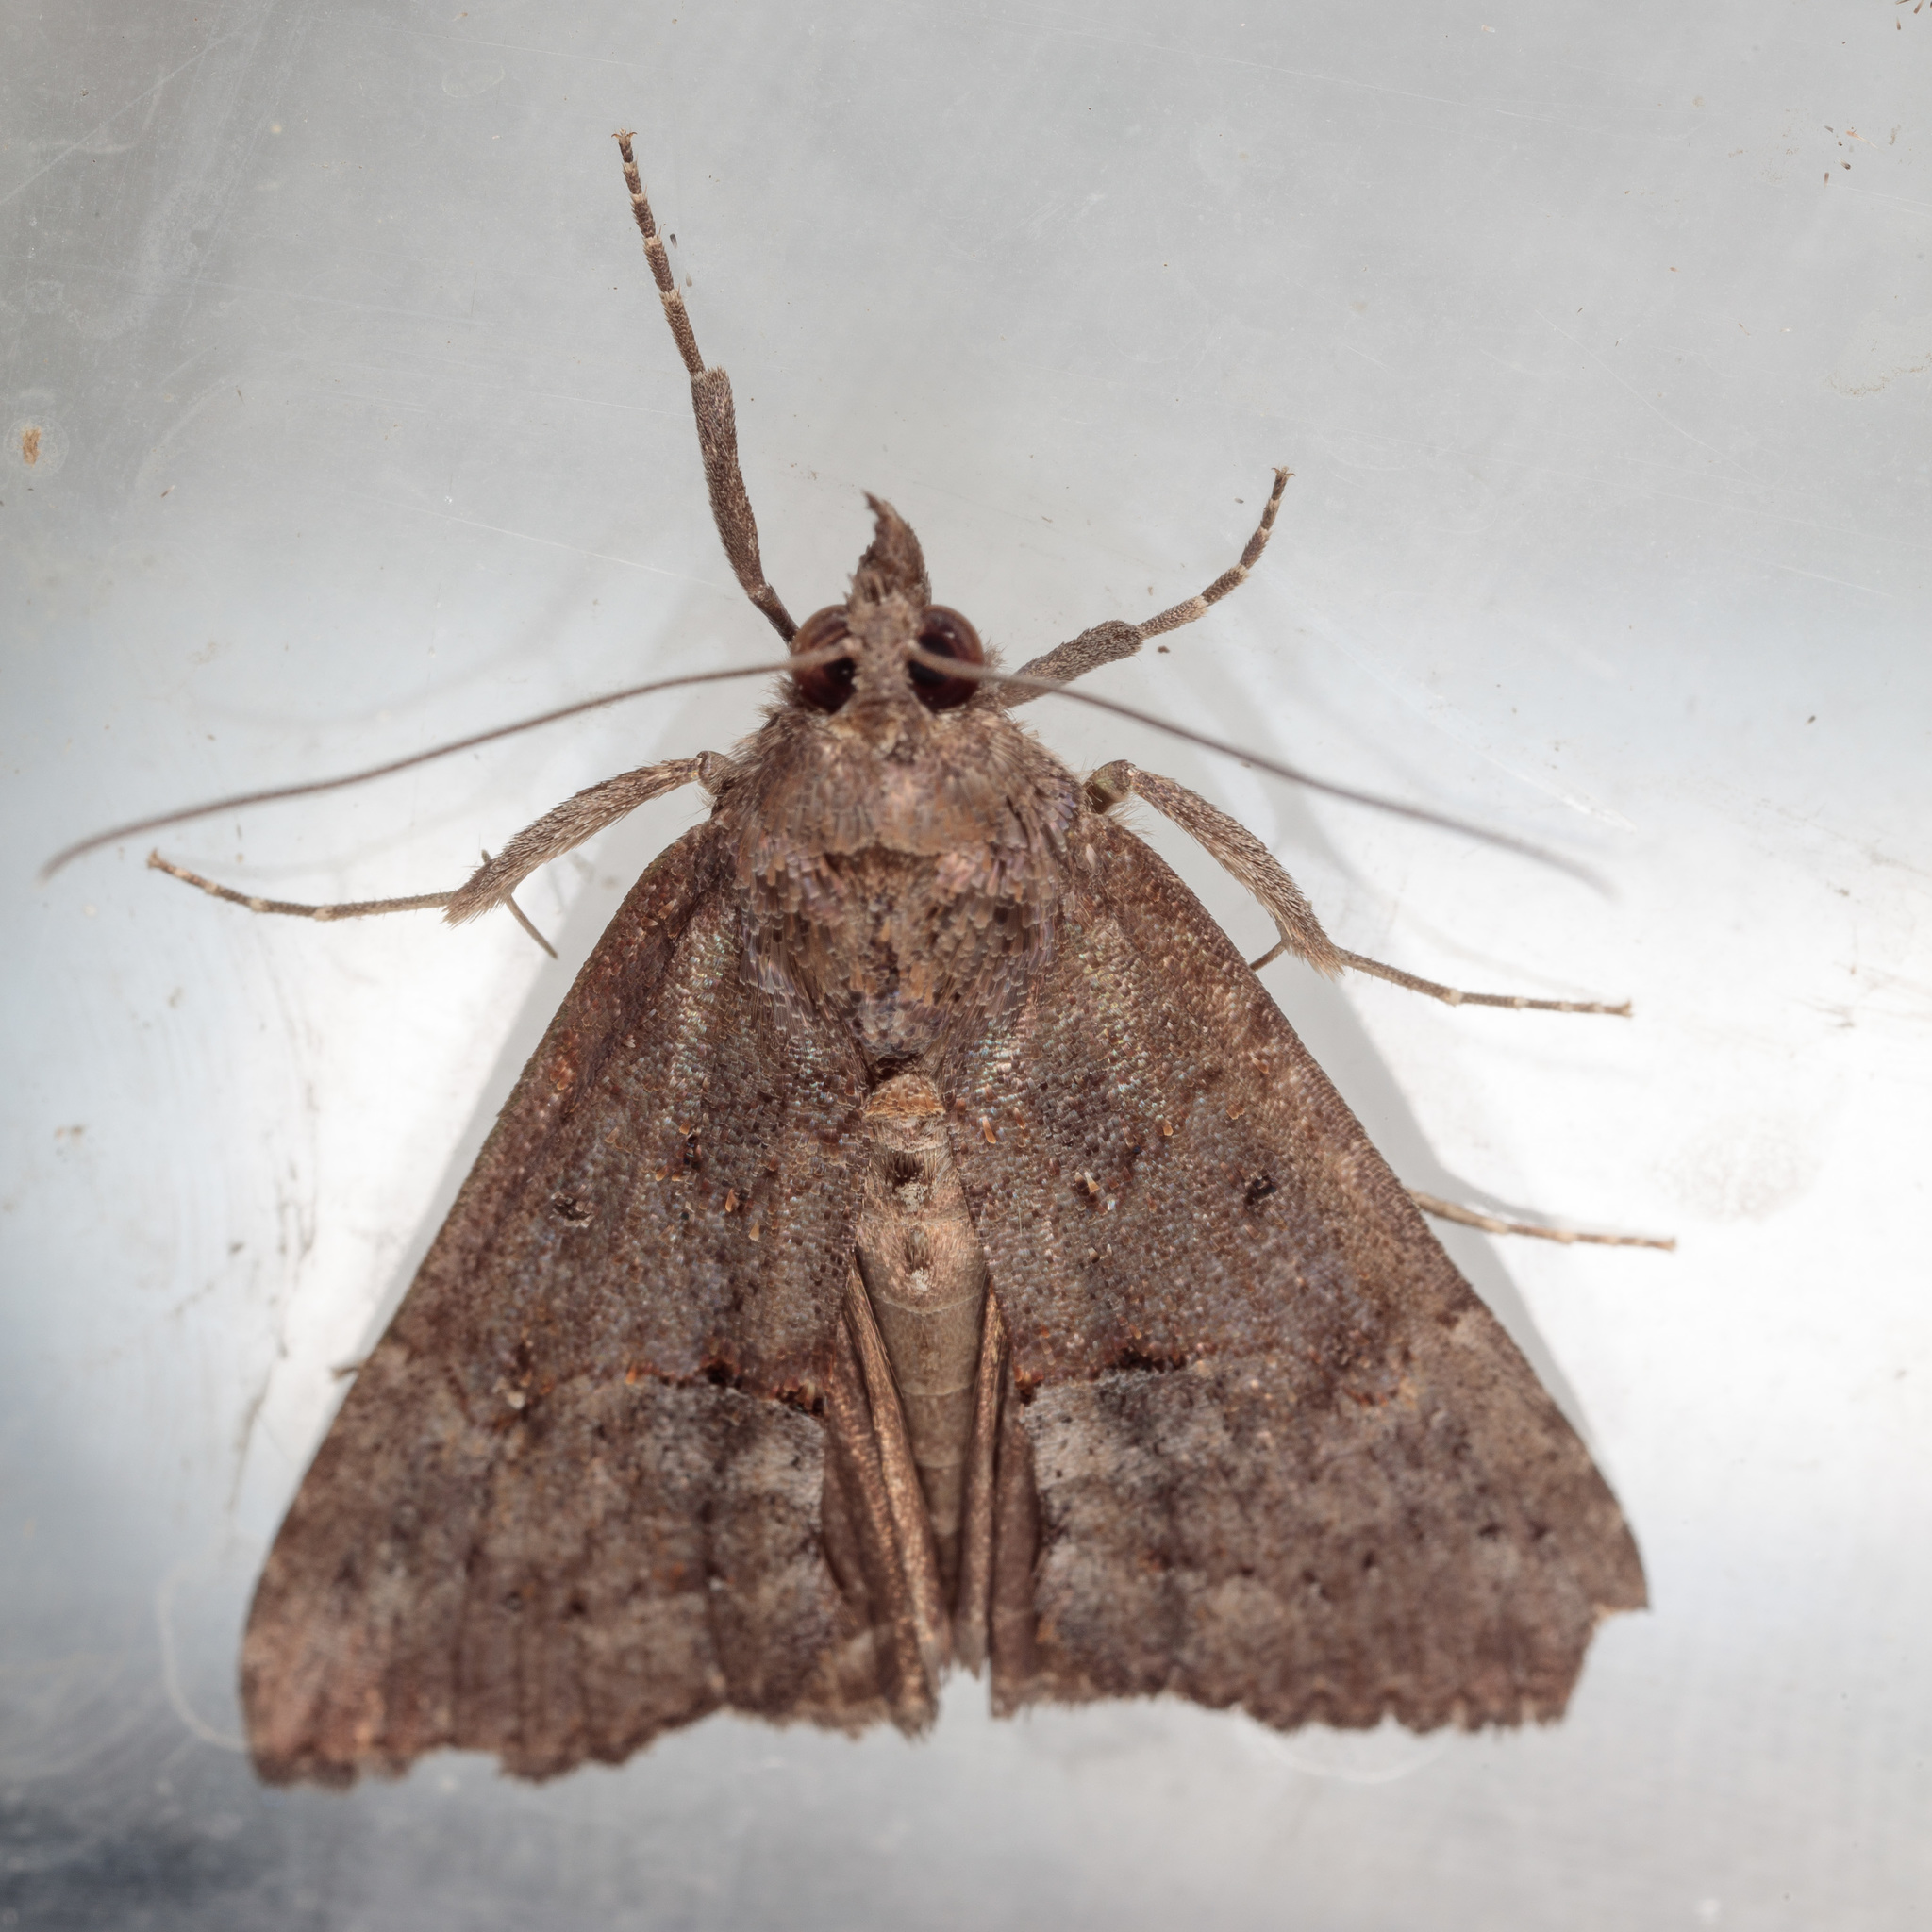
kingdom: Animalia
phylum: Arthropoda
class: Insecta
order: Lepidoptera
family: Erebidae
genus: Hypena
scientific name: Hypena scabra
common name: Green cloverworm
